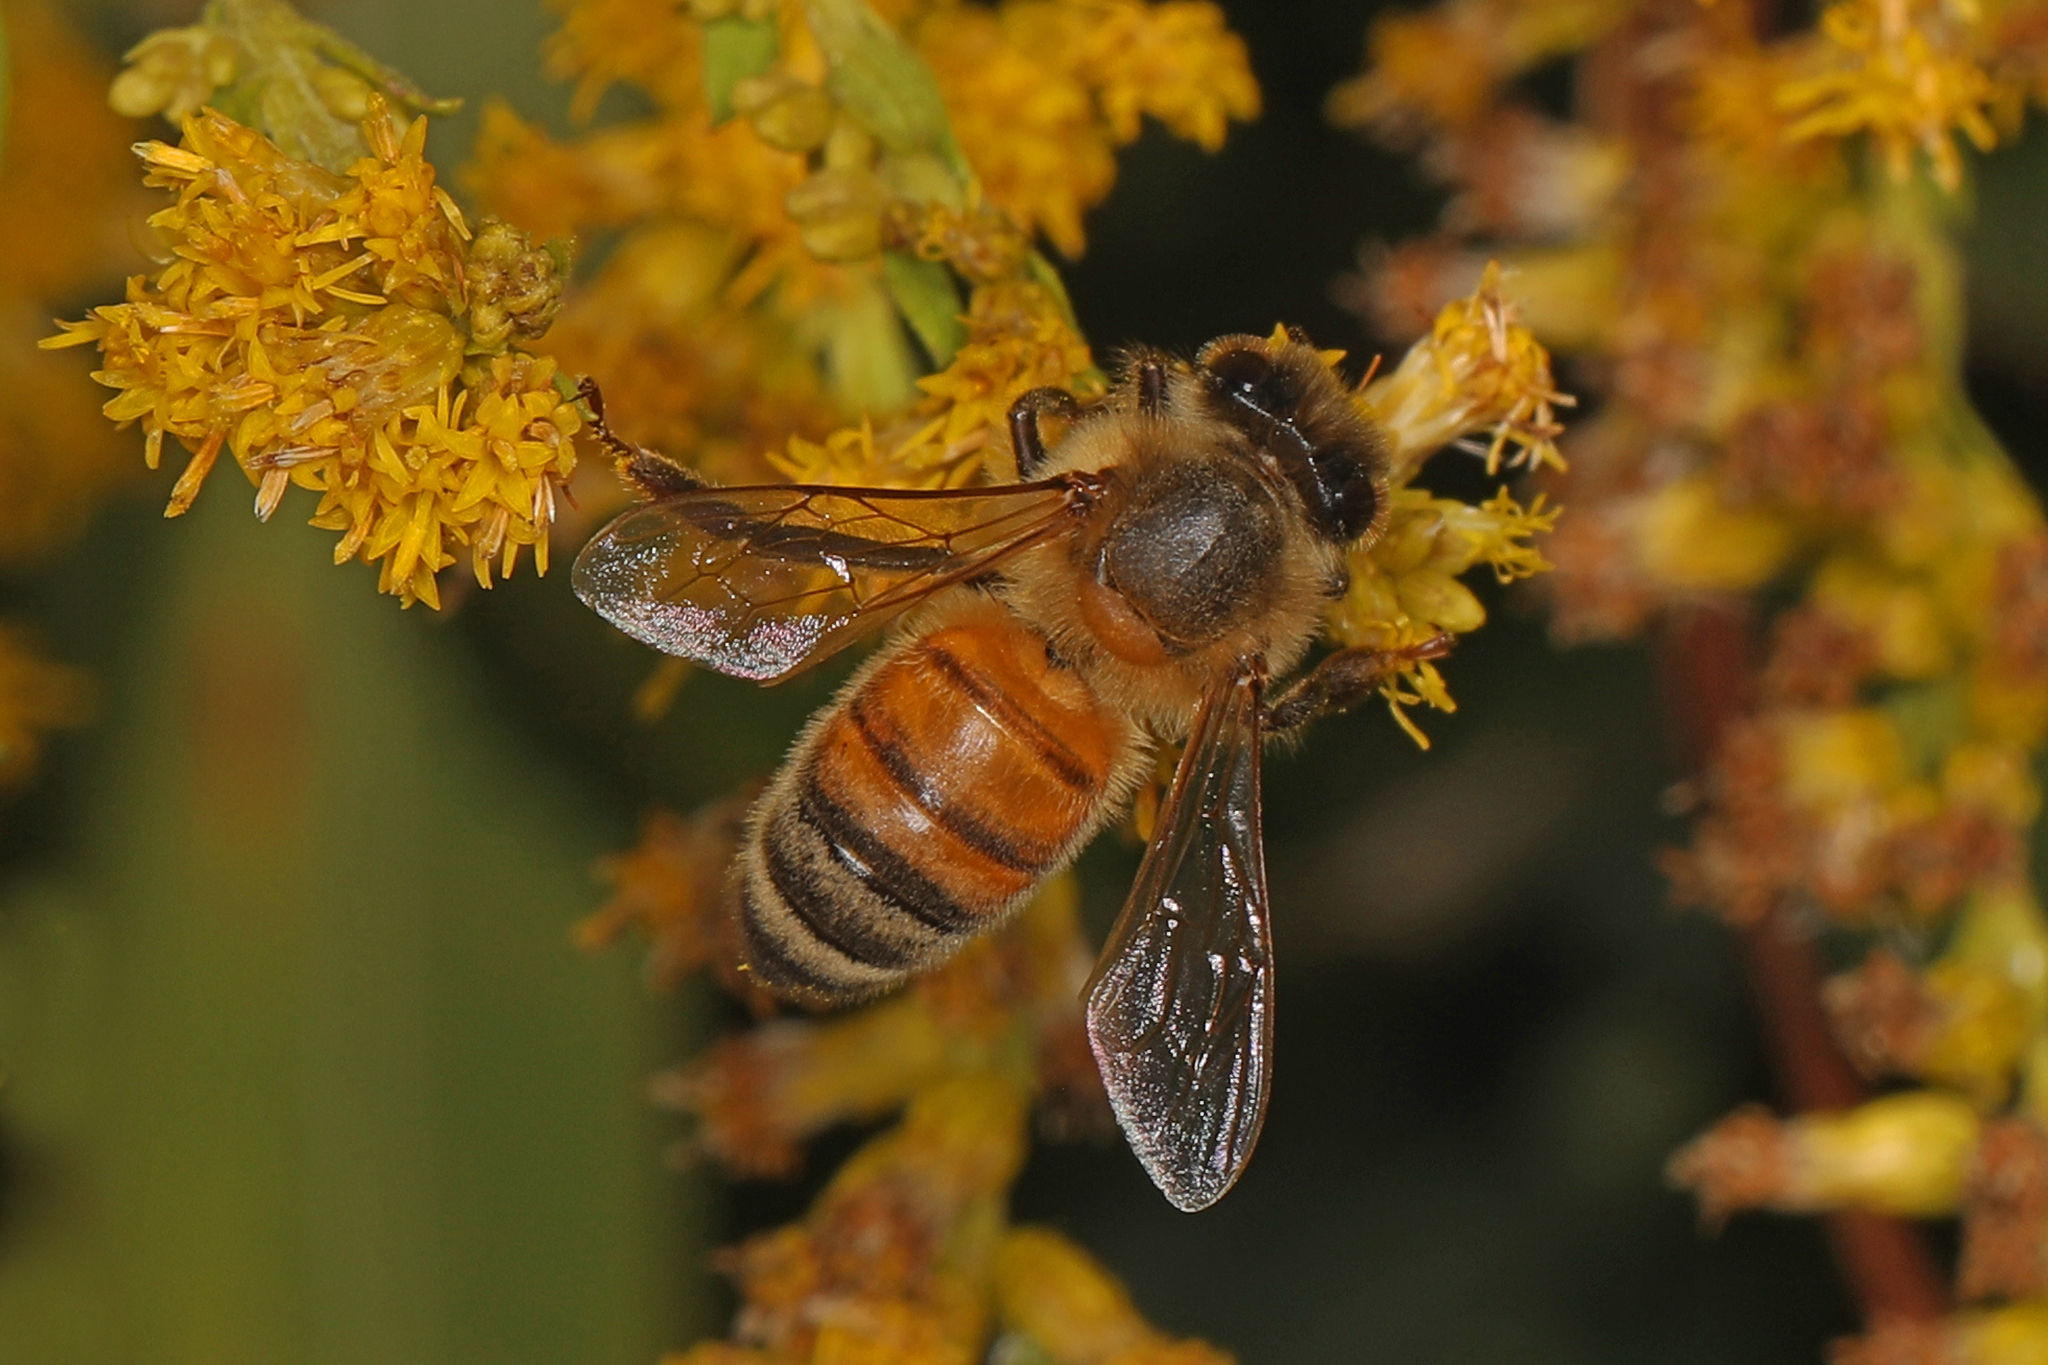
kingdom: Animalia
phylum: Arthropoda
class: Insecta
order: Hymenoptera
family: Apidae
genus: Apis
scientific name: Apis mellifera
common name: Honey bee
